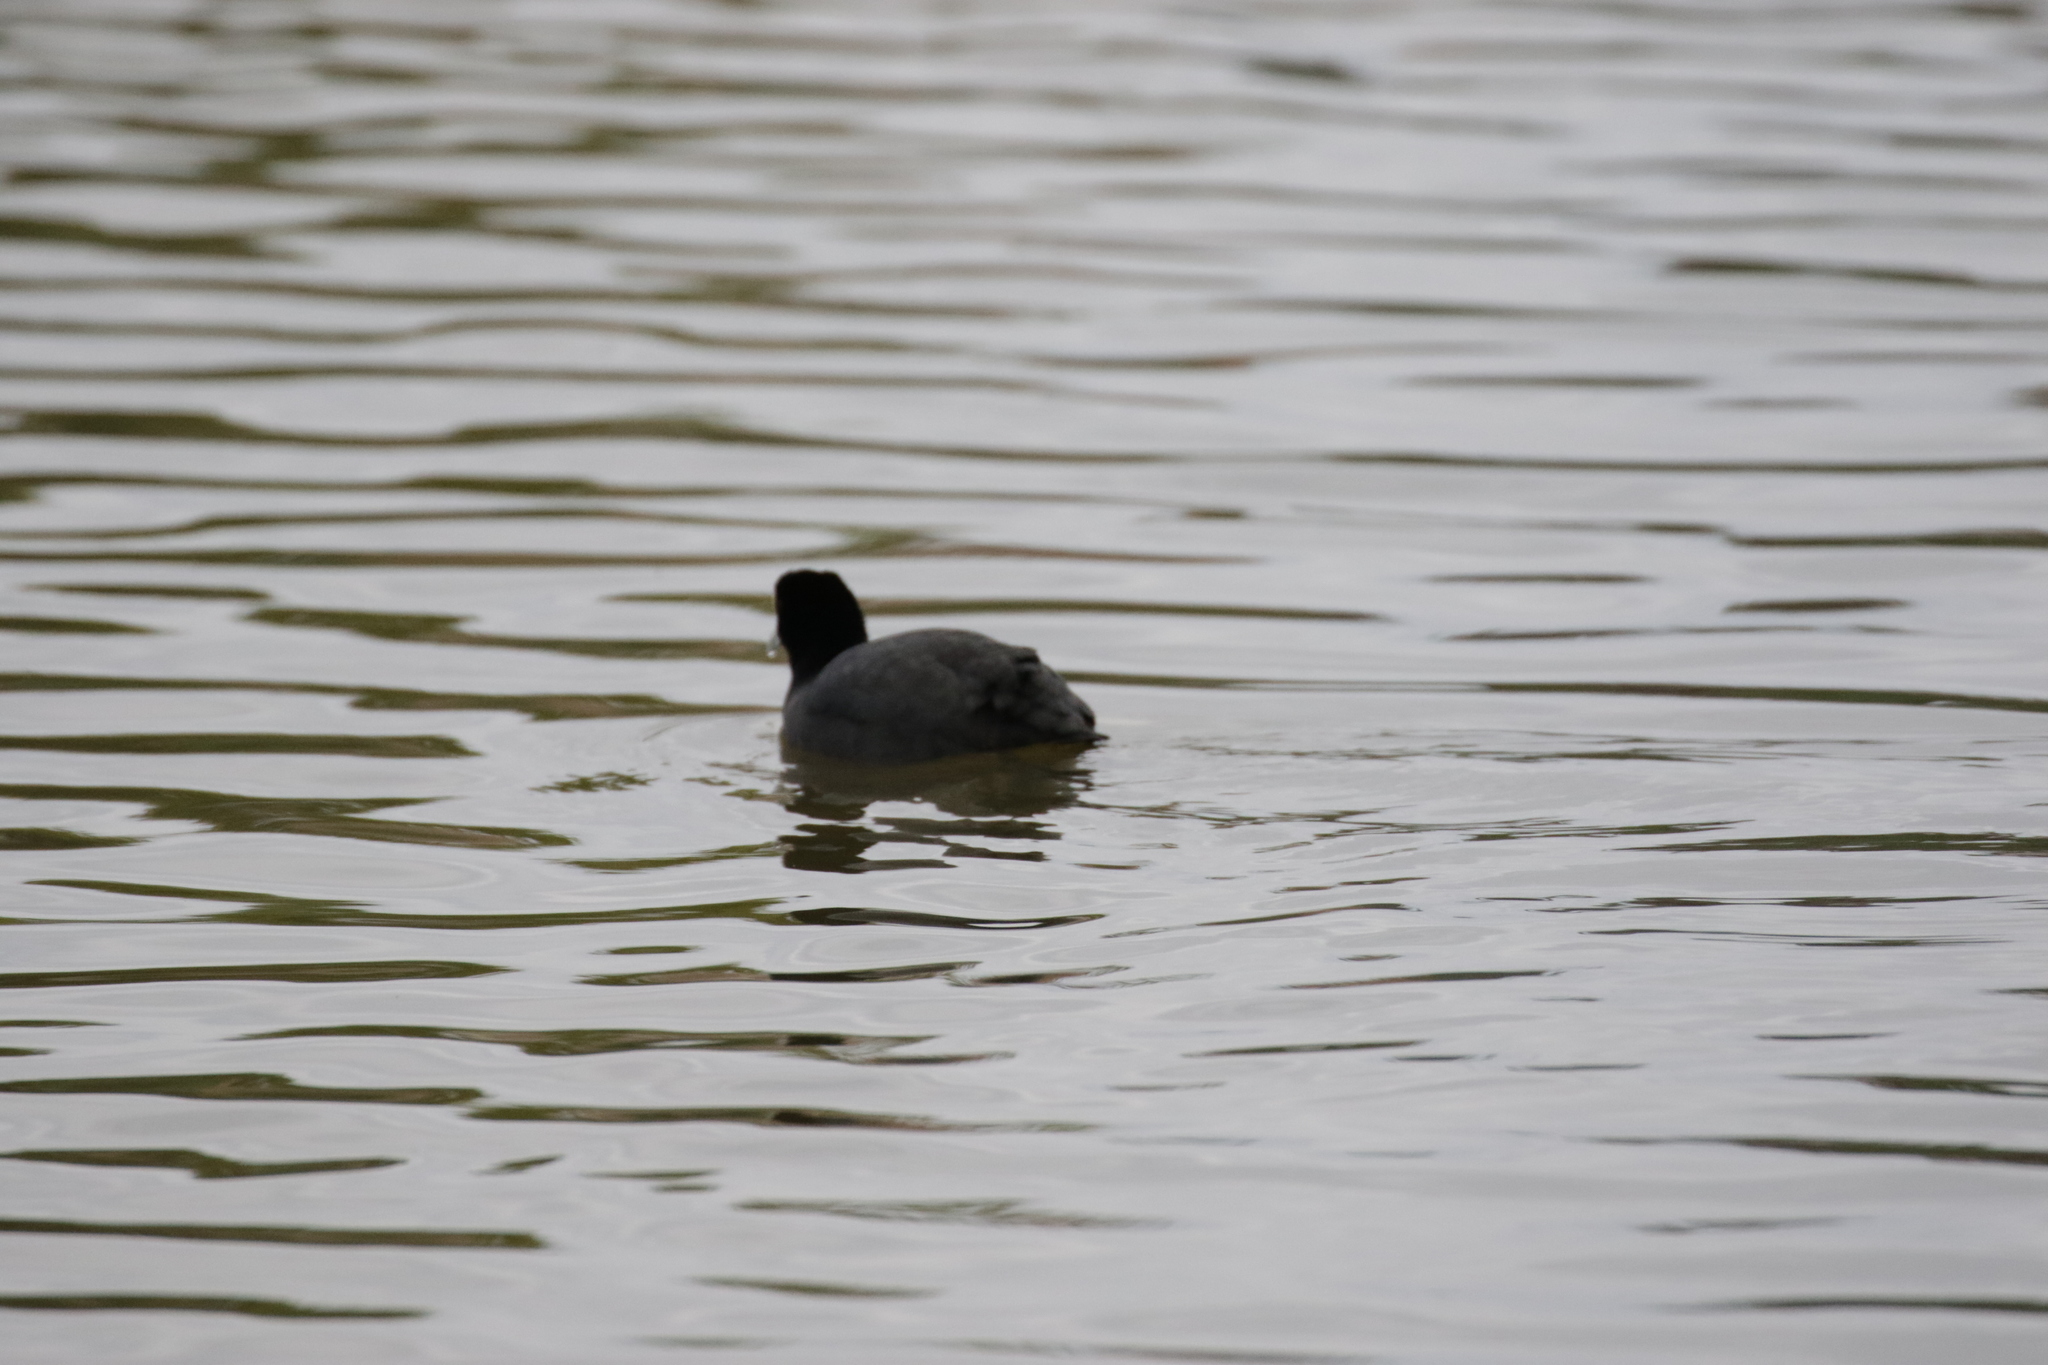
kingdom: Animalia
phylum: Chordata
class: Aves
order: Gruiformes
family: Rallidae
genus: Fulica
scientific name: Fulica atra
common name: Eurasian coot
